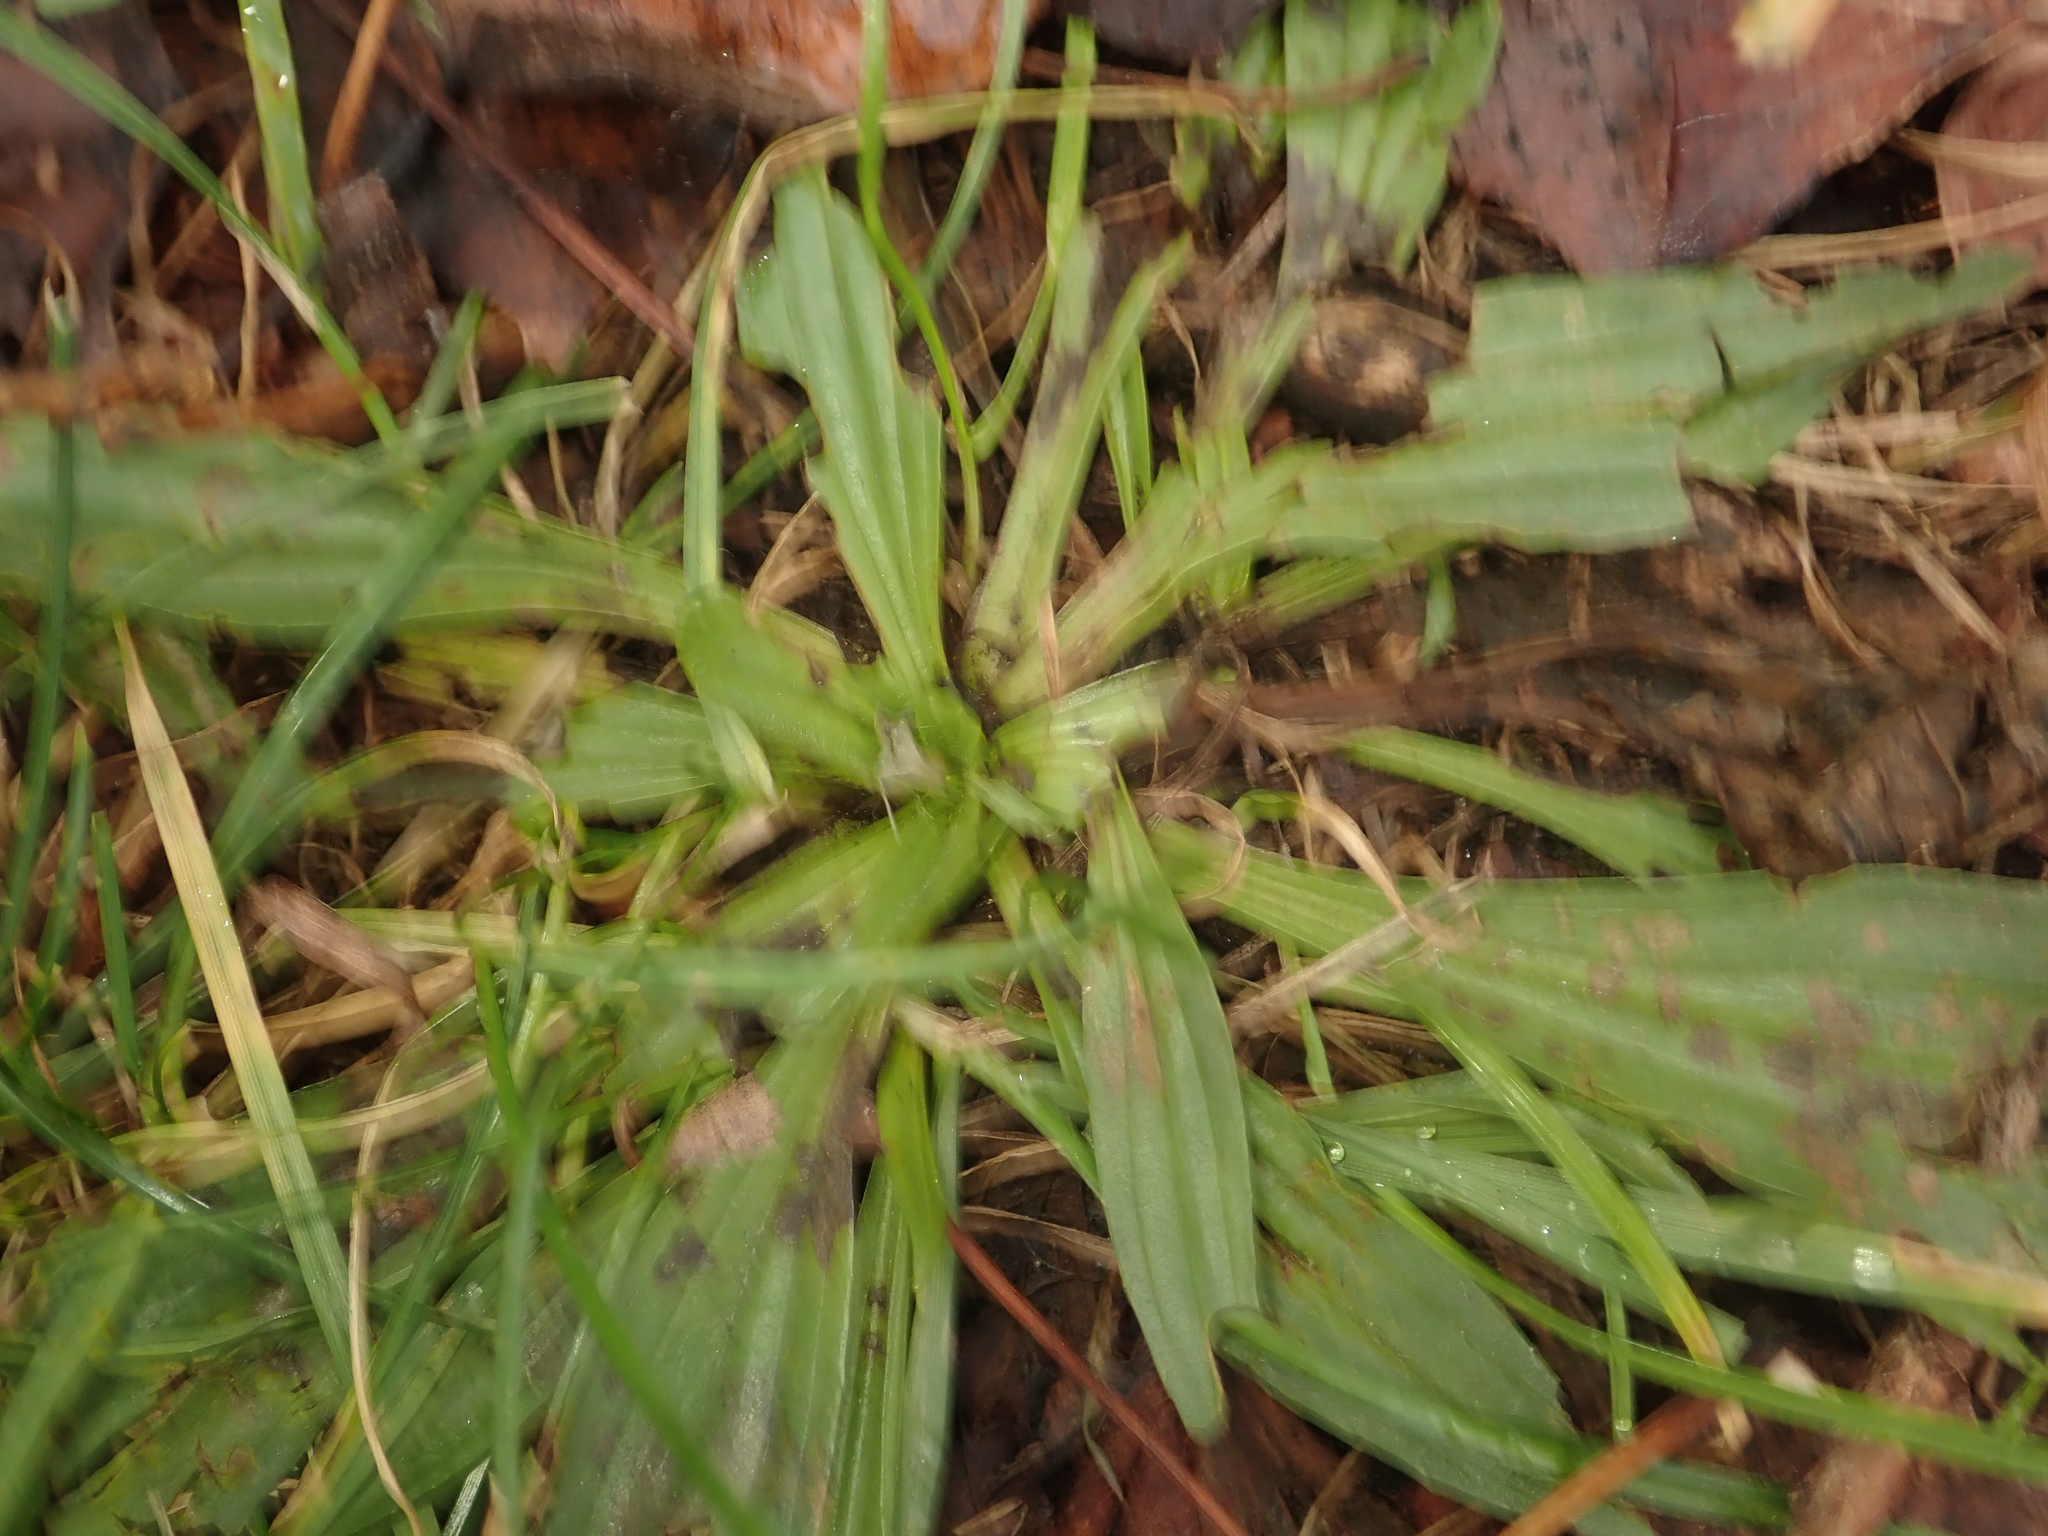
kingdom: Plantae
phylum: Tracheophyta
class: Magnoliopsida
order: Lamiales
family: Plantaginaceae
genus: Plantago
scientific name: Plantago lanceolata
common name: Ribwort plantain
